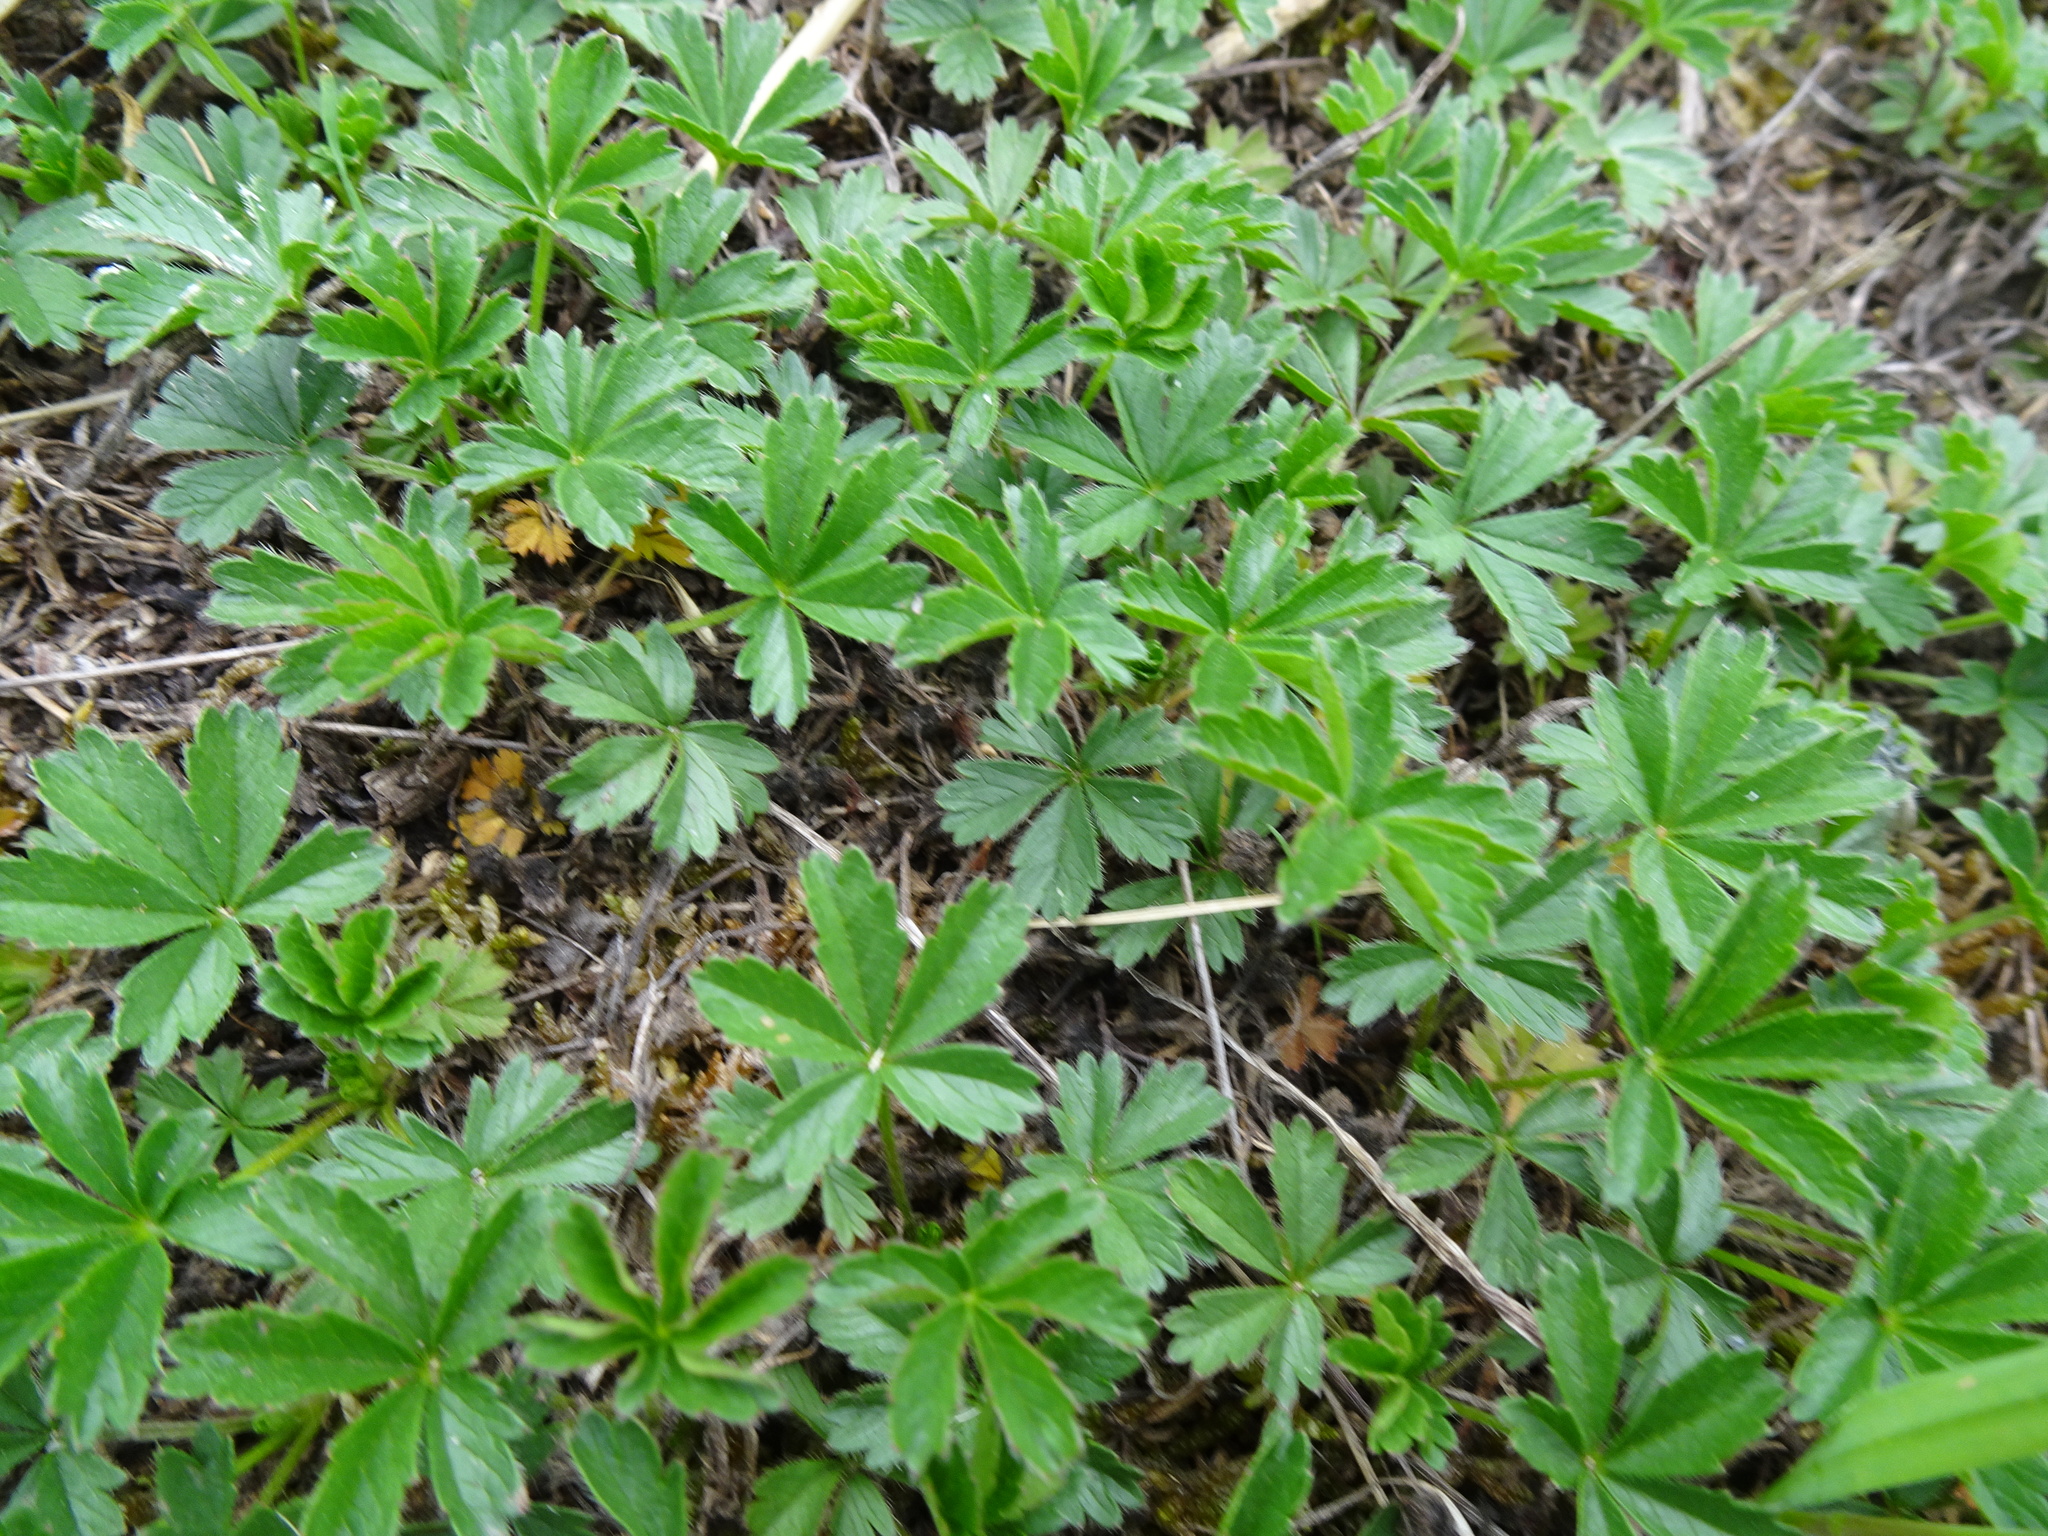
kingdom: Plantae
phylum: Tracheophyta
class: Magnoliopsida
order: Rosales
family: Rosaceae
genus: Potentilla
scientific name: Potentilla reptans
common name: Creeping cinquefoil
